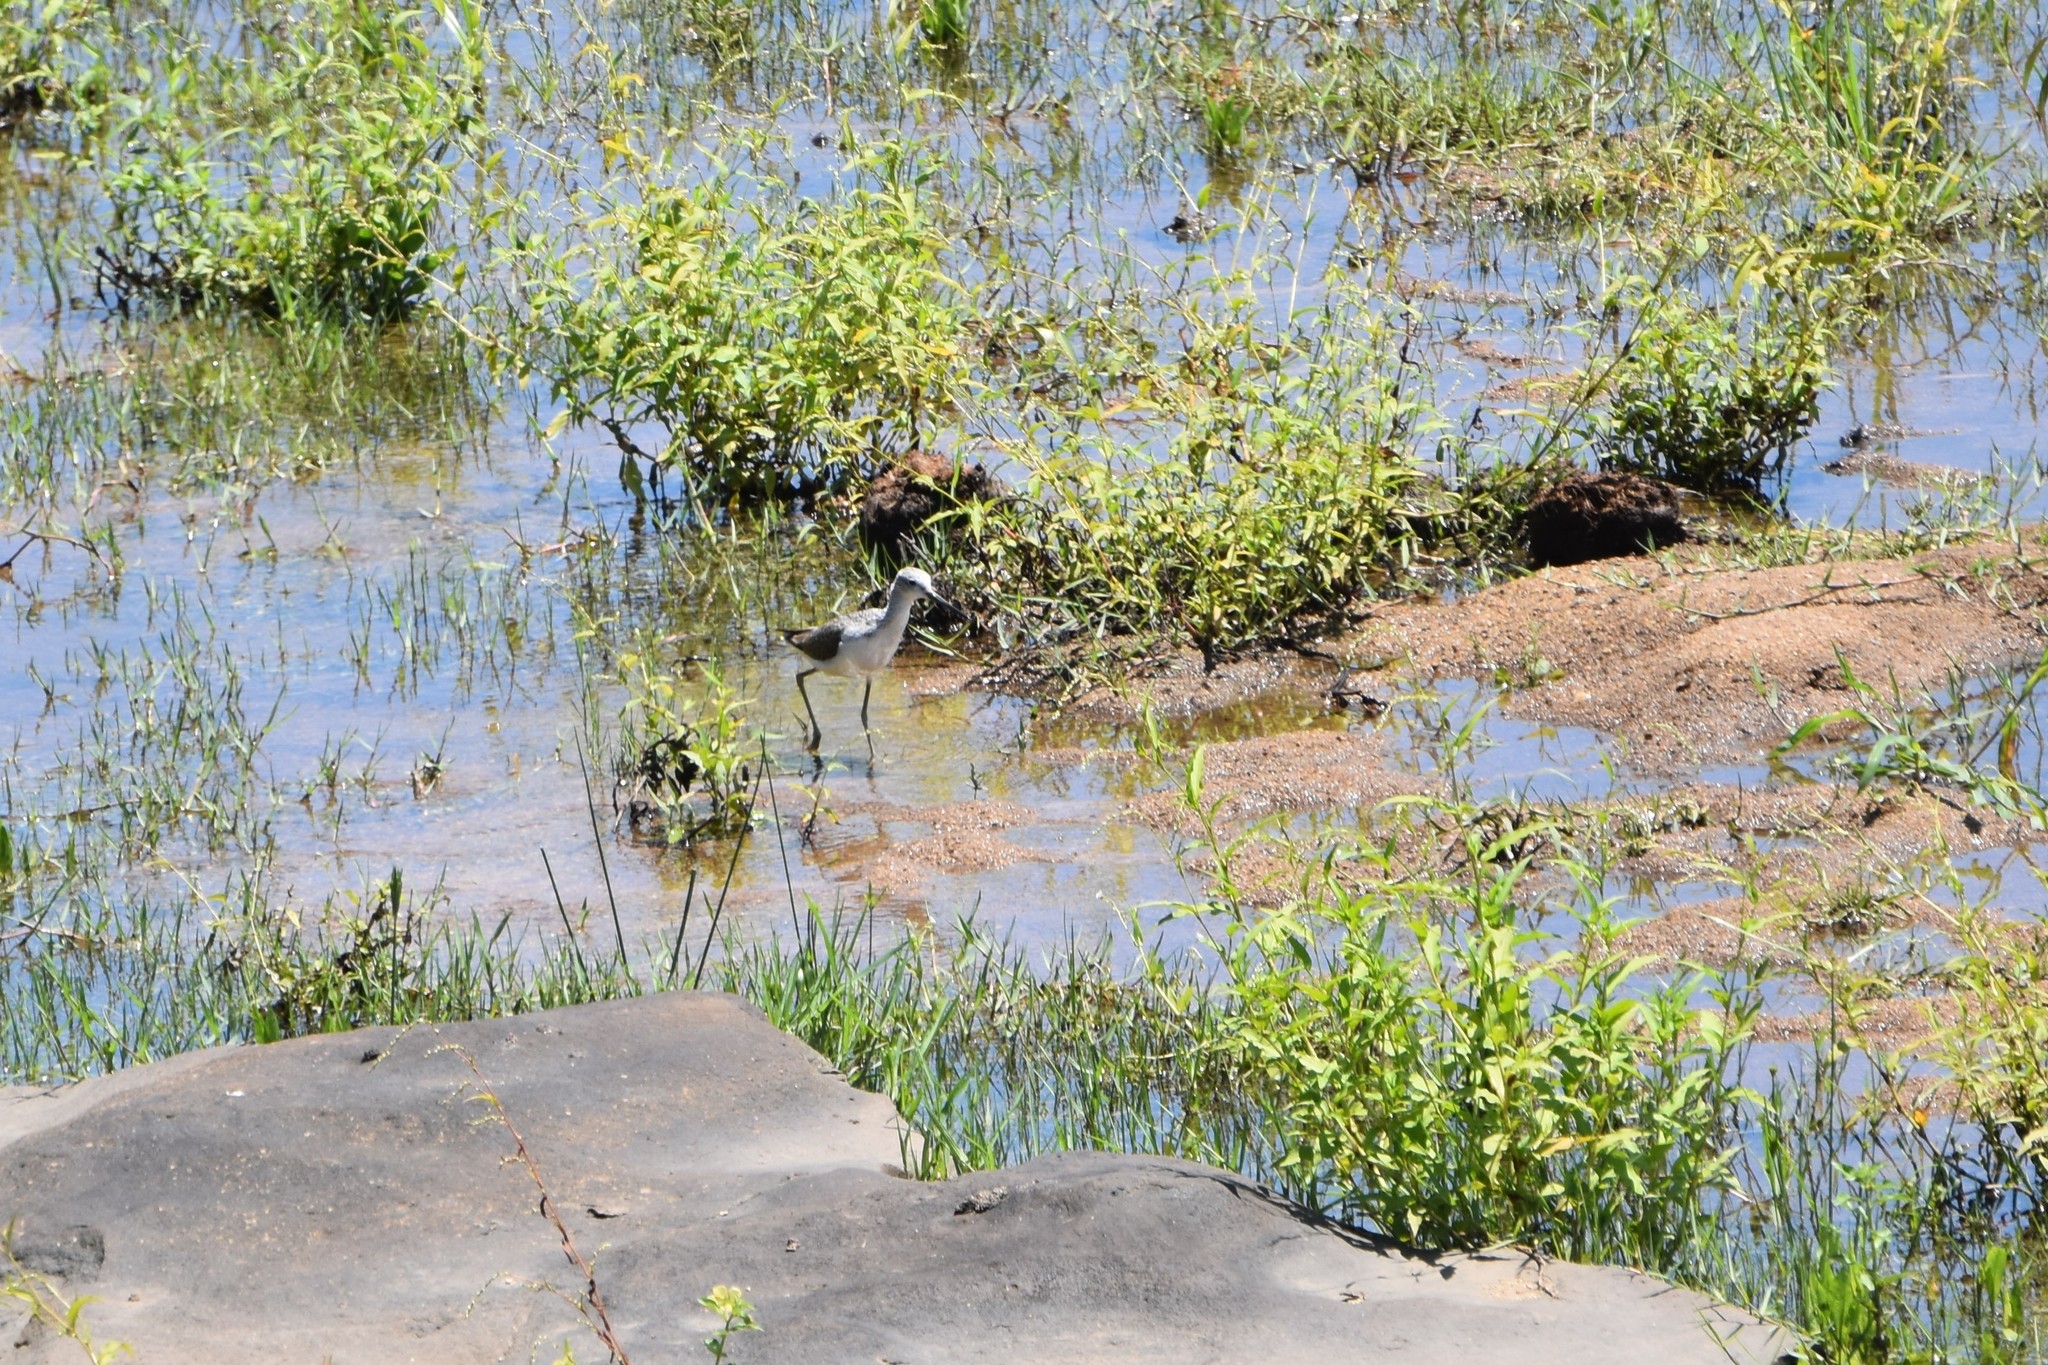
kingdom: Animalia
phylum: Chordata
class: Aves
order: Charadriiformes
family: Scolopacidae
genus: Tringa
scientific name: Tringa nebularia
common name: Common greenshank
